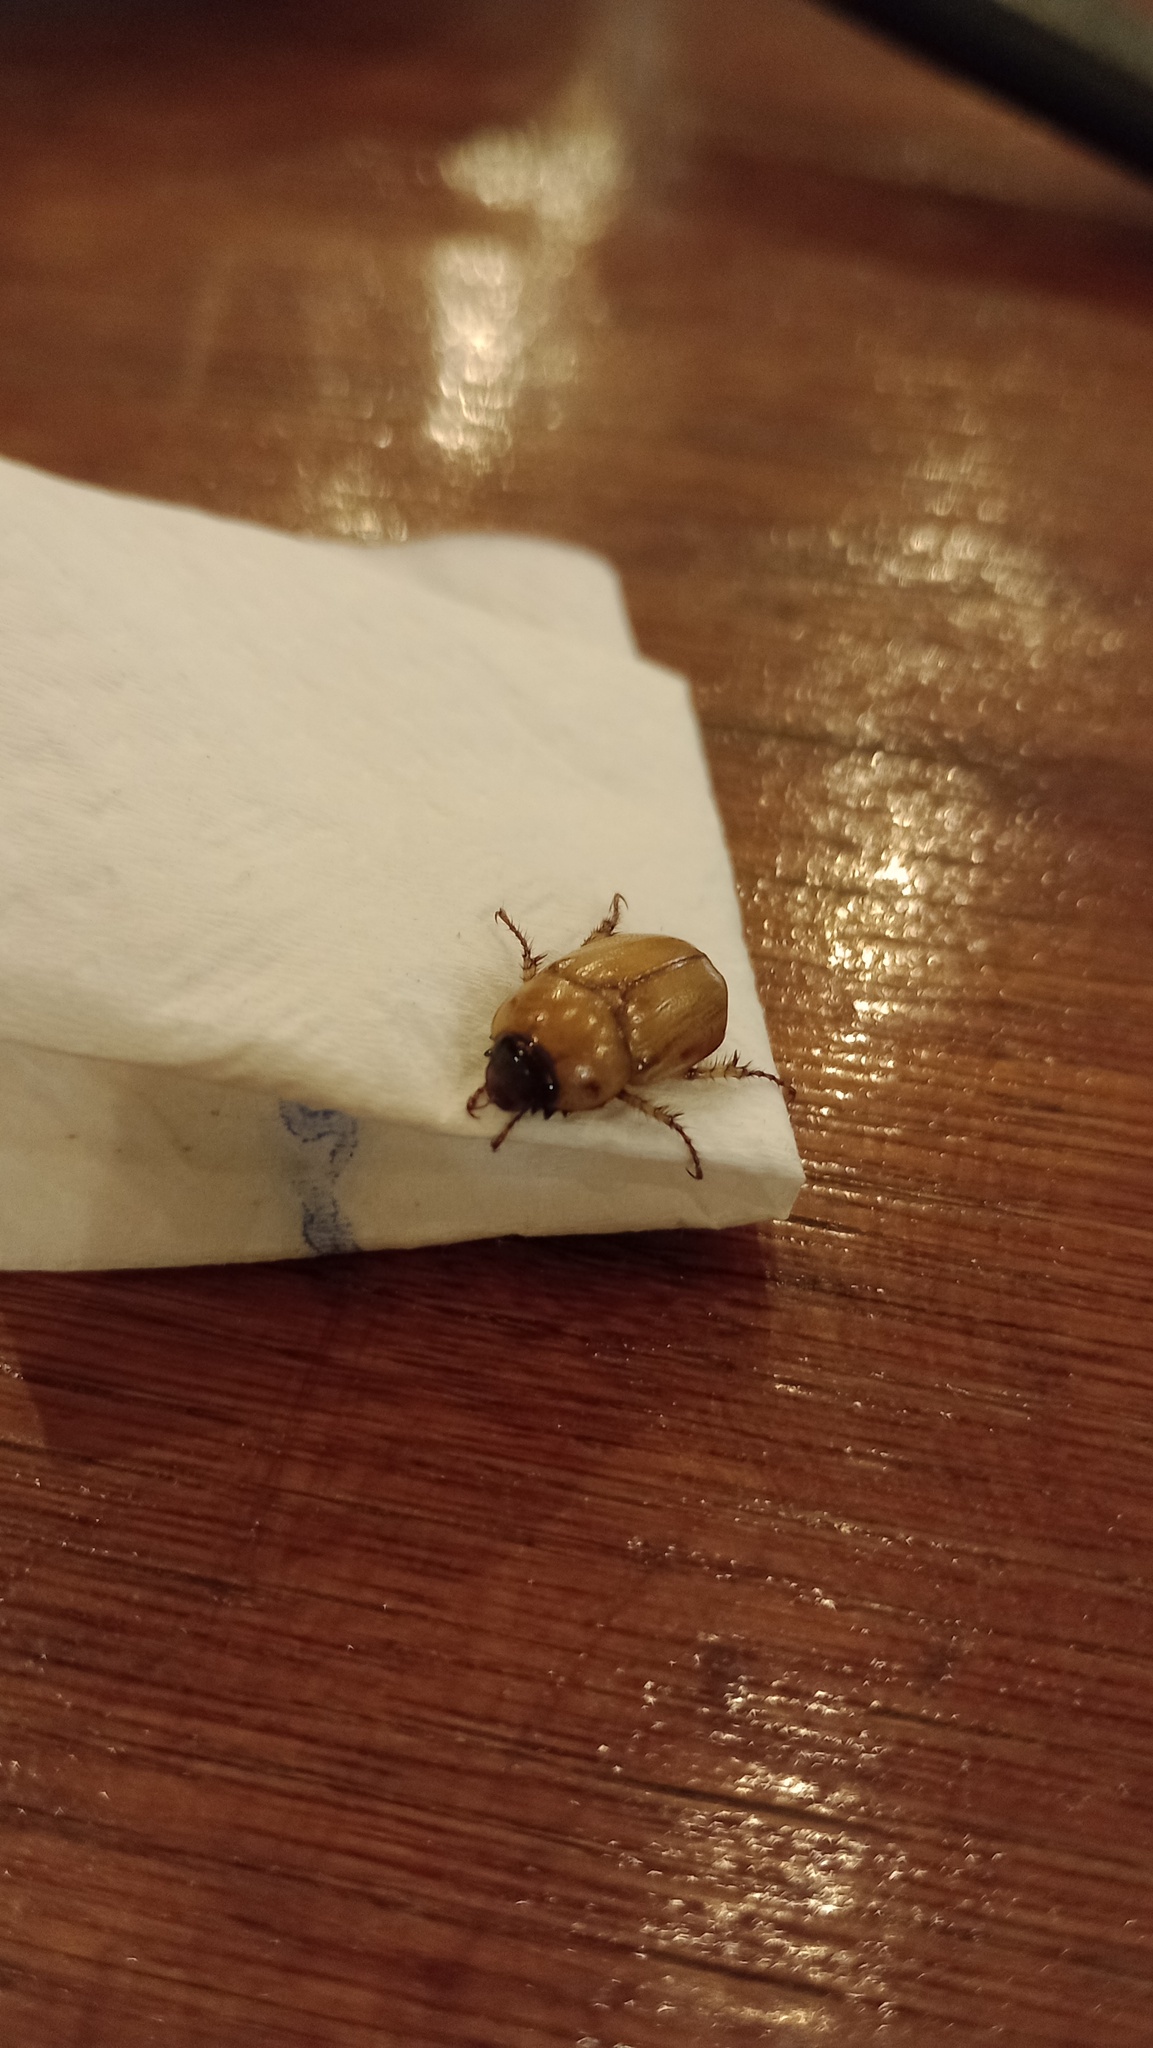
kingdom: Animalia
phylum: Arthropoda
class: Insecta
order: Coleoptera
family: Scarabaeidae
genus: Cyclocephala
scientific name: Cyclocephala putrida
